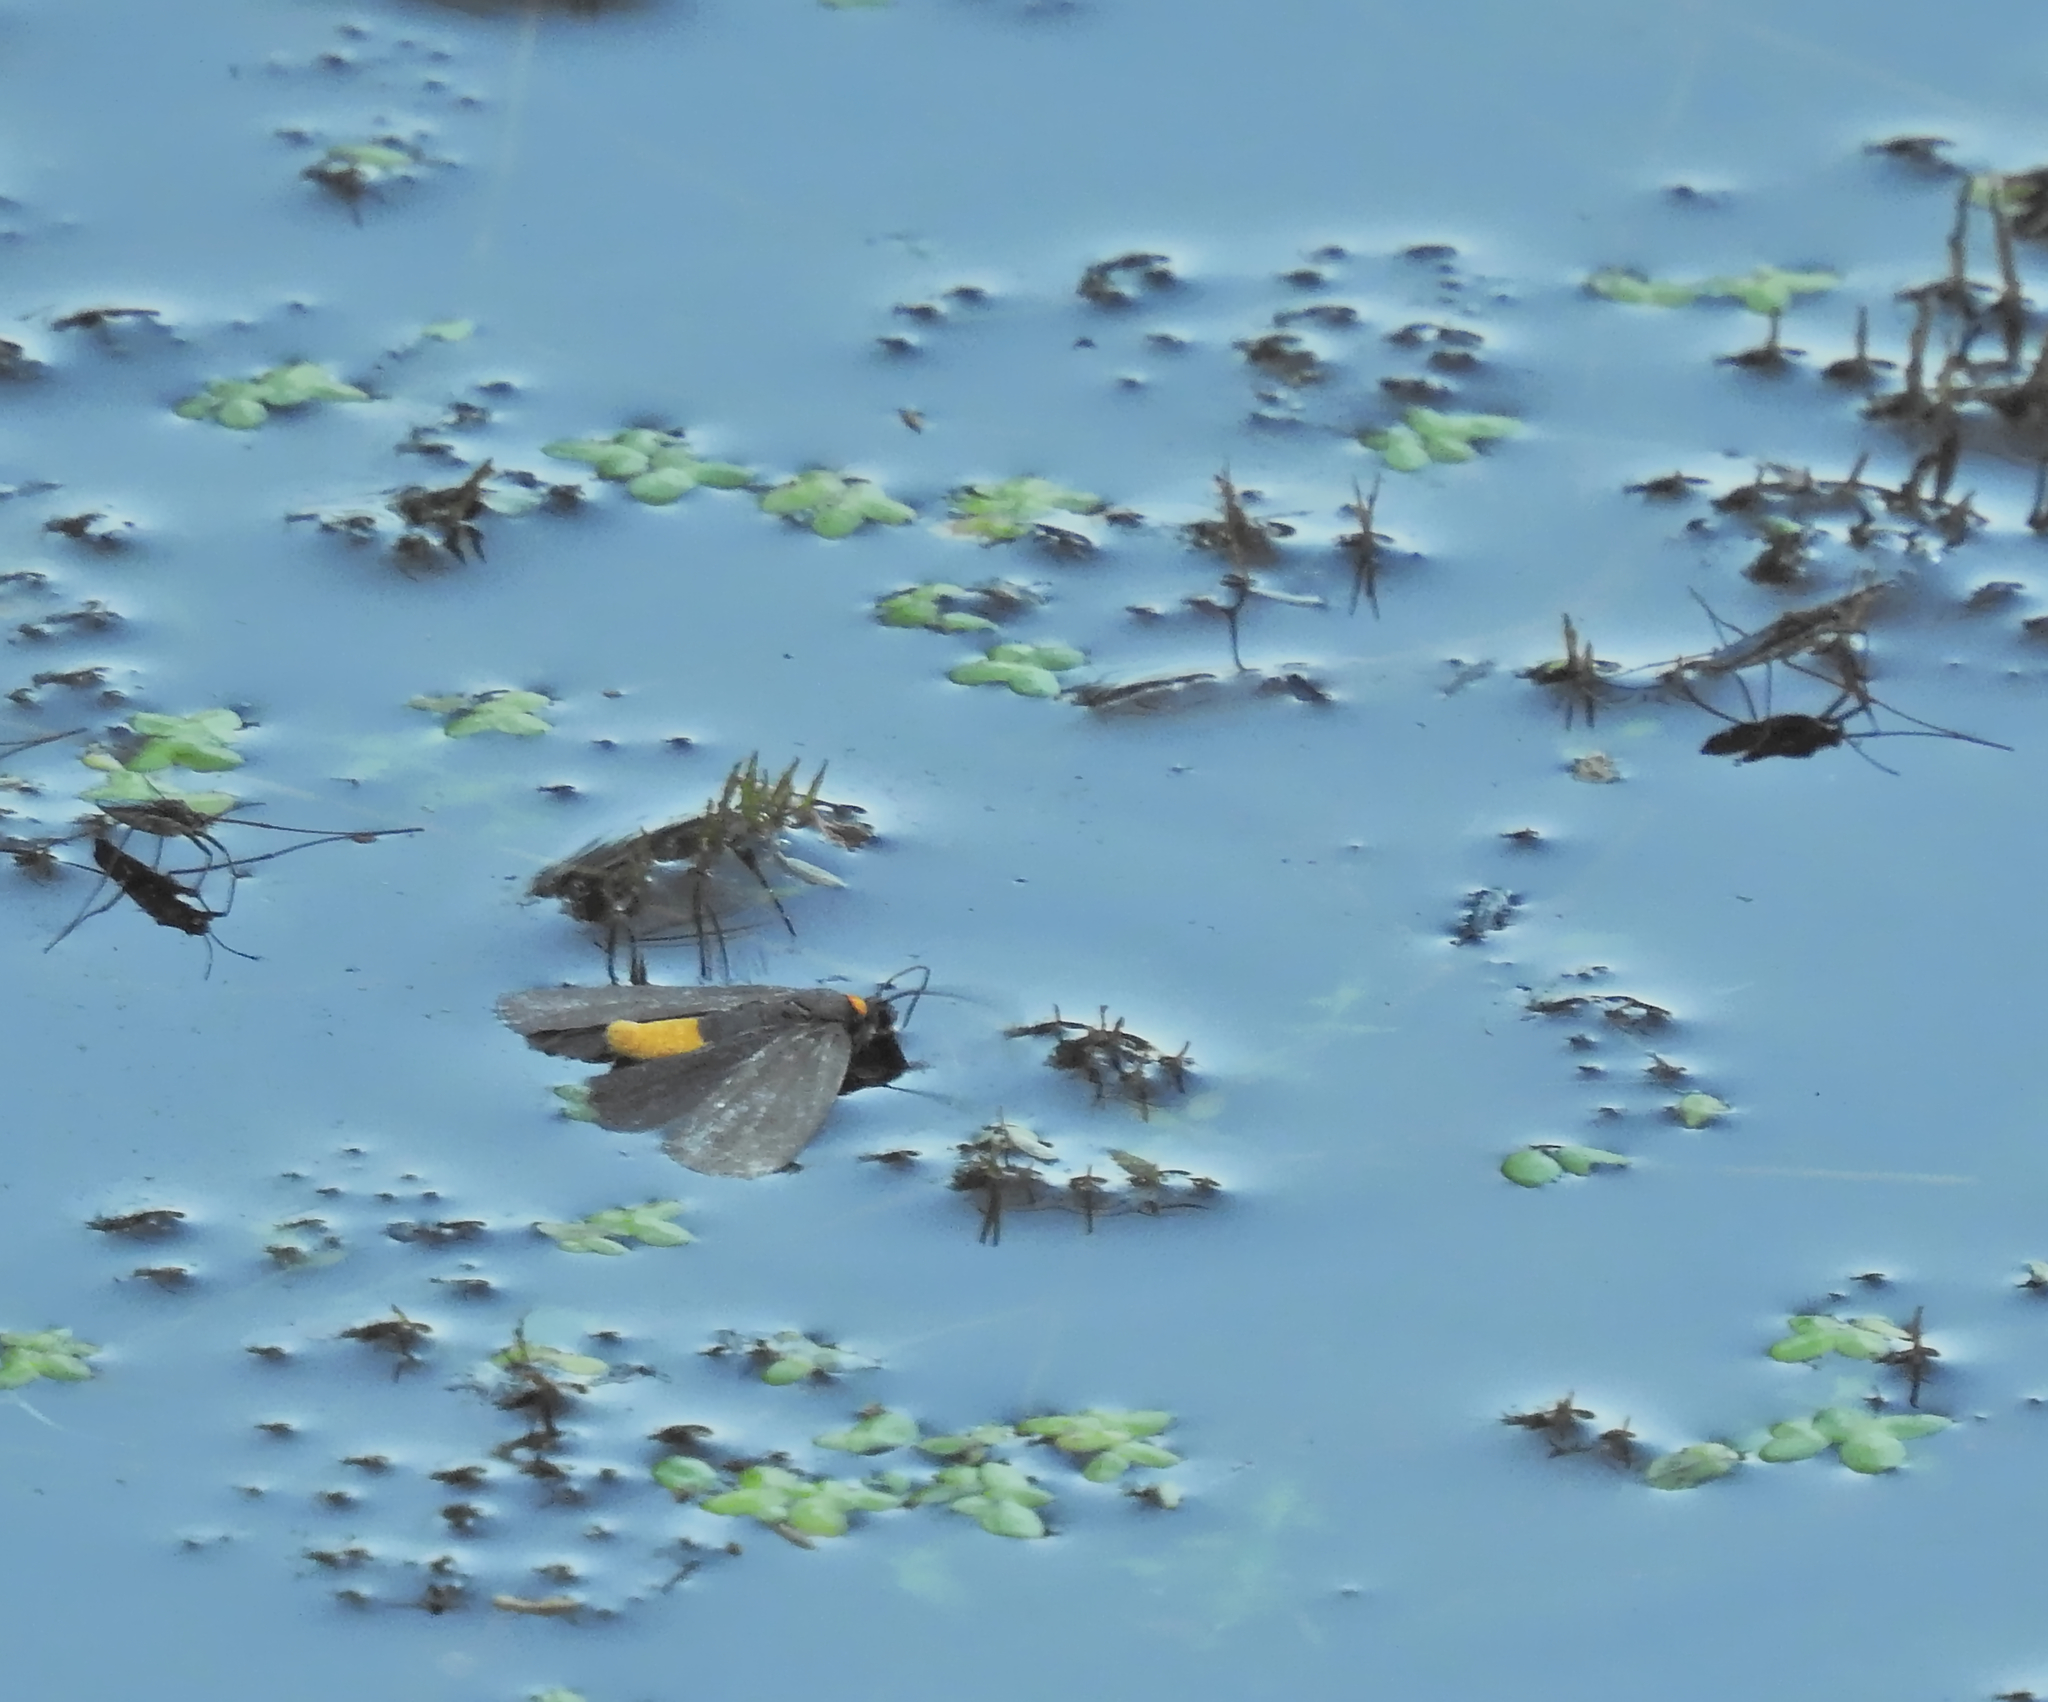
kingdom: Animalia
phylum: Arthropoda
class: Insecta
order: Lepidoptera
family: Erebidae
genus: Atolmis
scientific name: Atolmis rubricollis
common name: Red-necked footman
